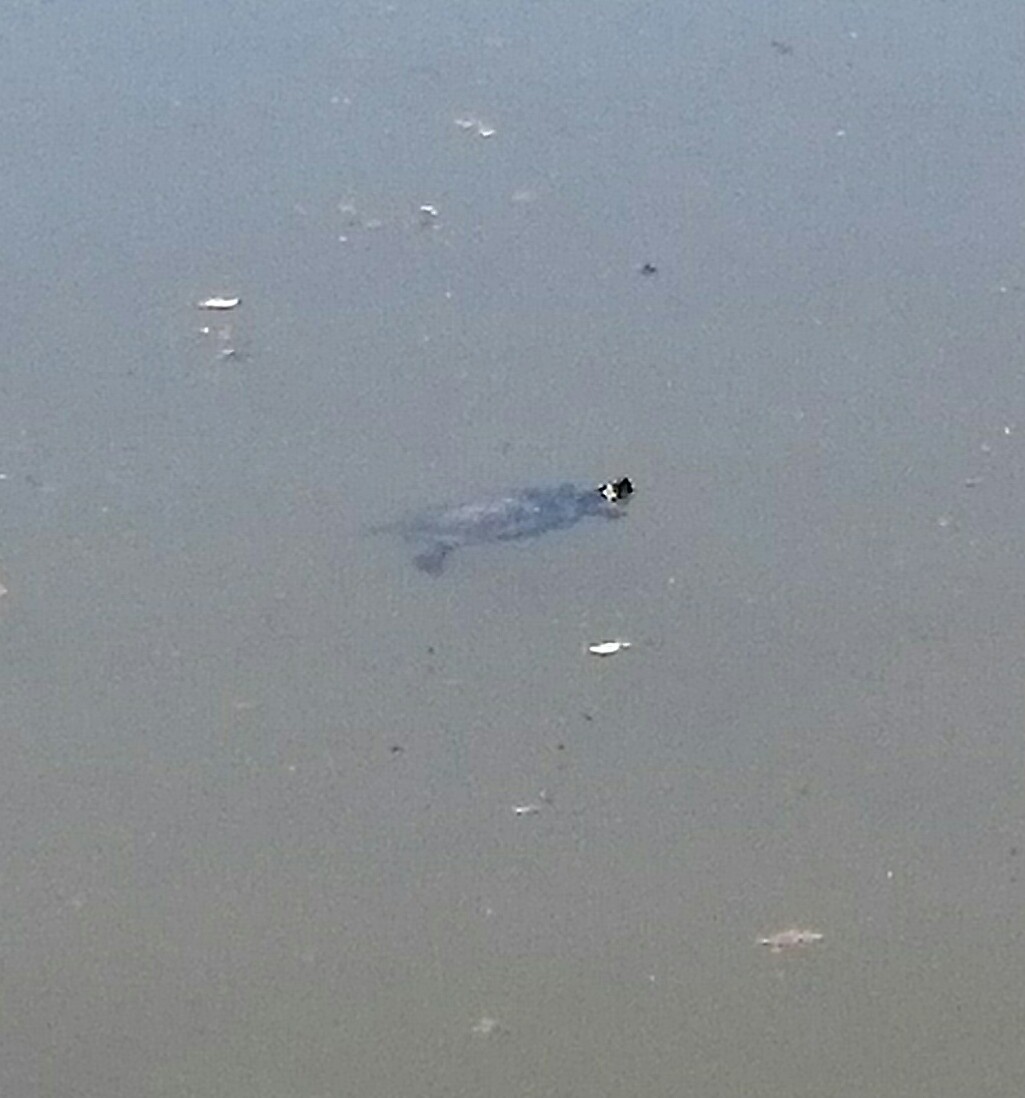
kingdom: Animalia
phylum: Chordata
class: Testudines
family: Emydidae
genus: Trachemys
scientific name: Trachemys scripta
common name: Slider
